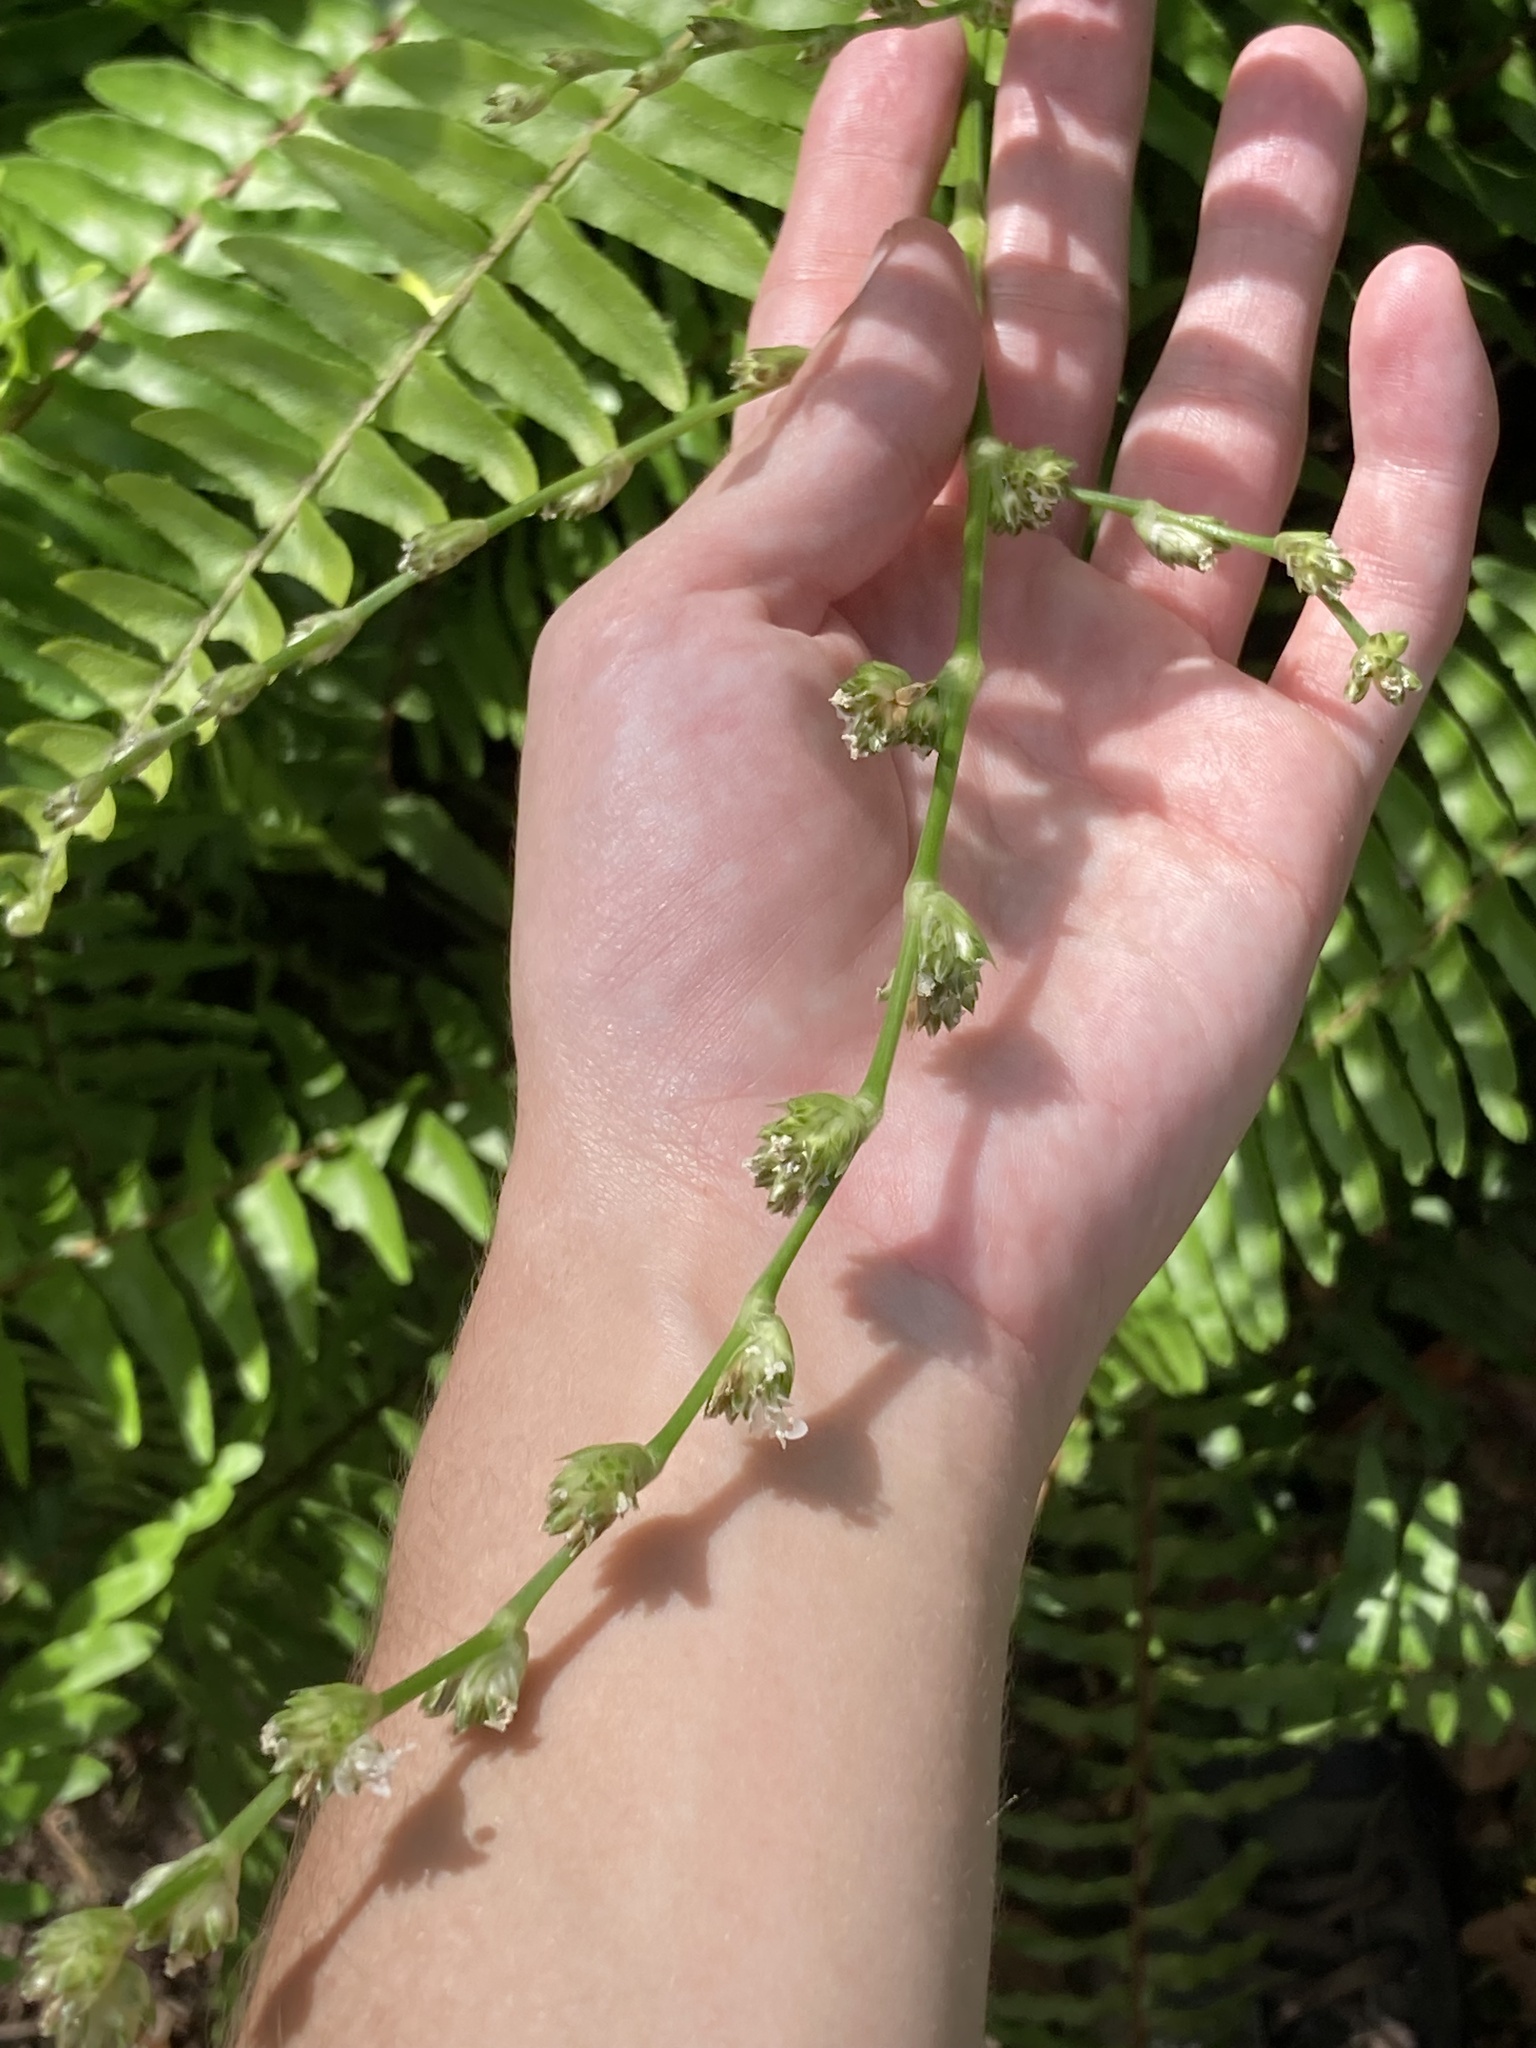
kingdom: Plantae
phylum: Tracheophyta
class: Liliopsida
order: Commelinales
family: Commelinaceae
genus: Callisia
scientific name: Callisia fragrans
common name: Basketplant
